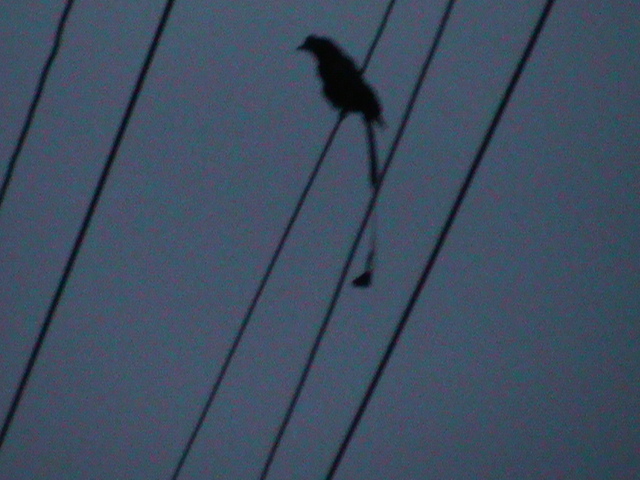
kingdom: Animalia
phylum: Chordata
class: Aves
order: Passeriformes
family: Dicruridae
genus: Dicrurus
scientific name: Dicrurus paradiseus
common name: Greater racket-tailed drongo
